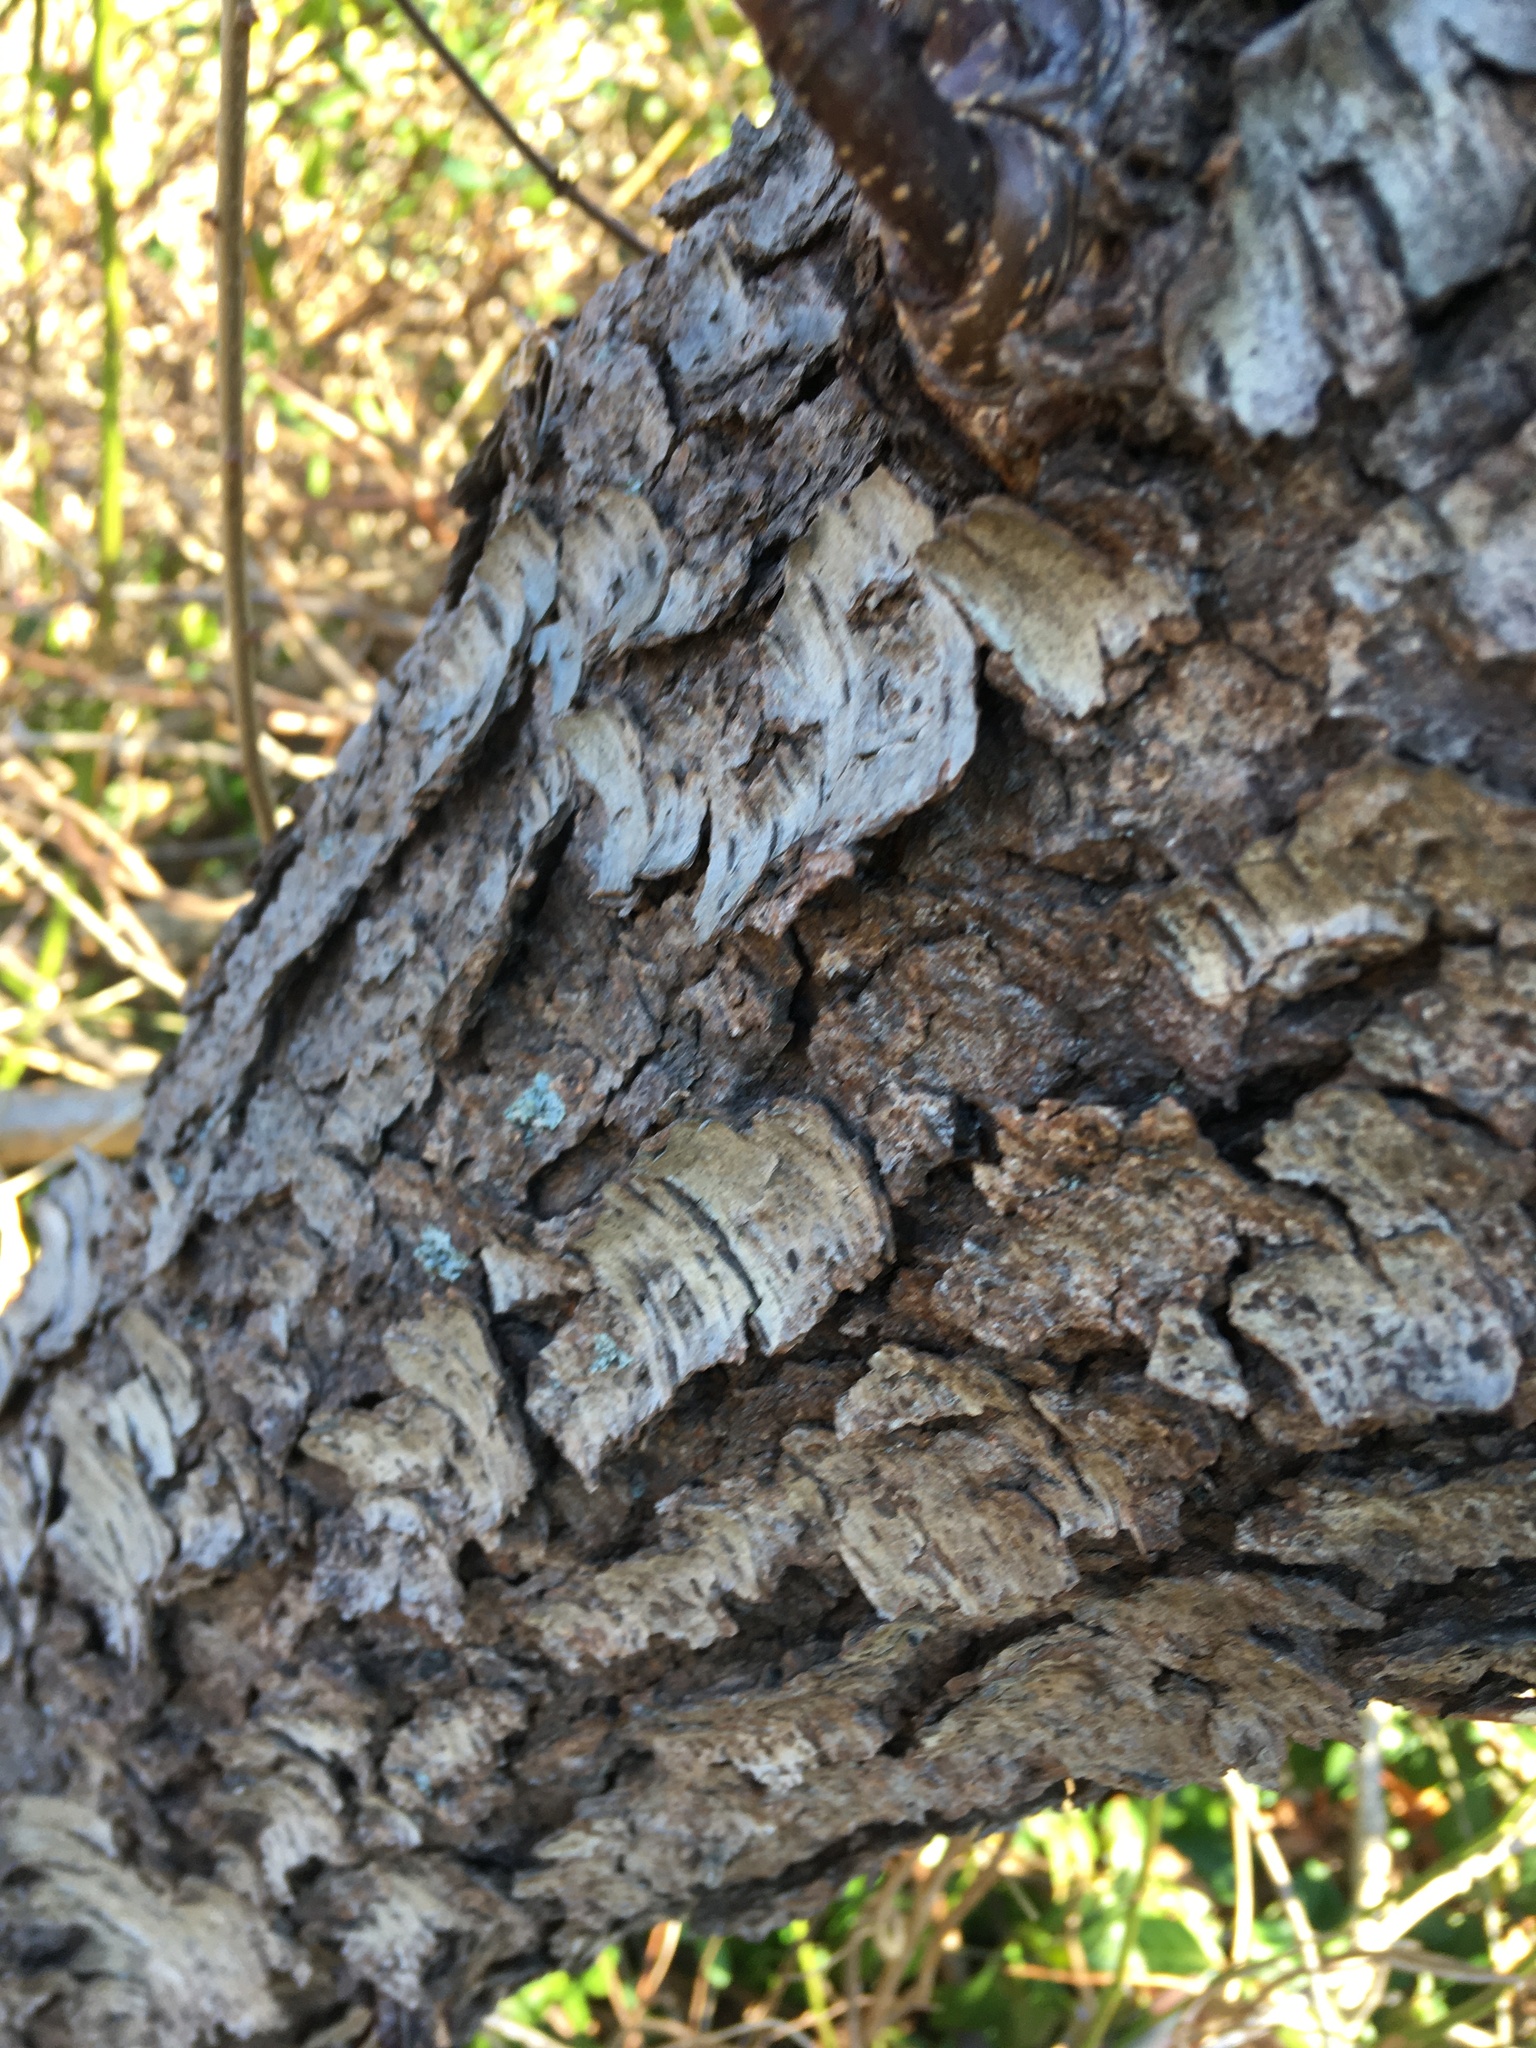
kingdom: Plantae
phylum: Tracheophyta
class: Magnoliopsida
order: Rosales
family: Rosaceae
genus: Prunus
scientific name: Prunus serotina
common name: Black cherry
